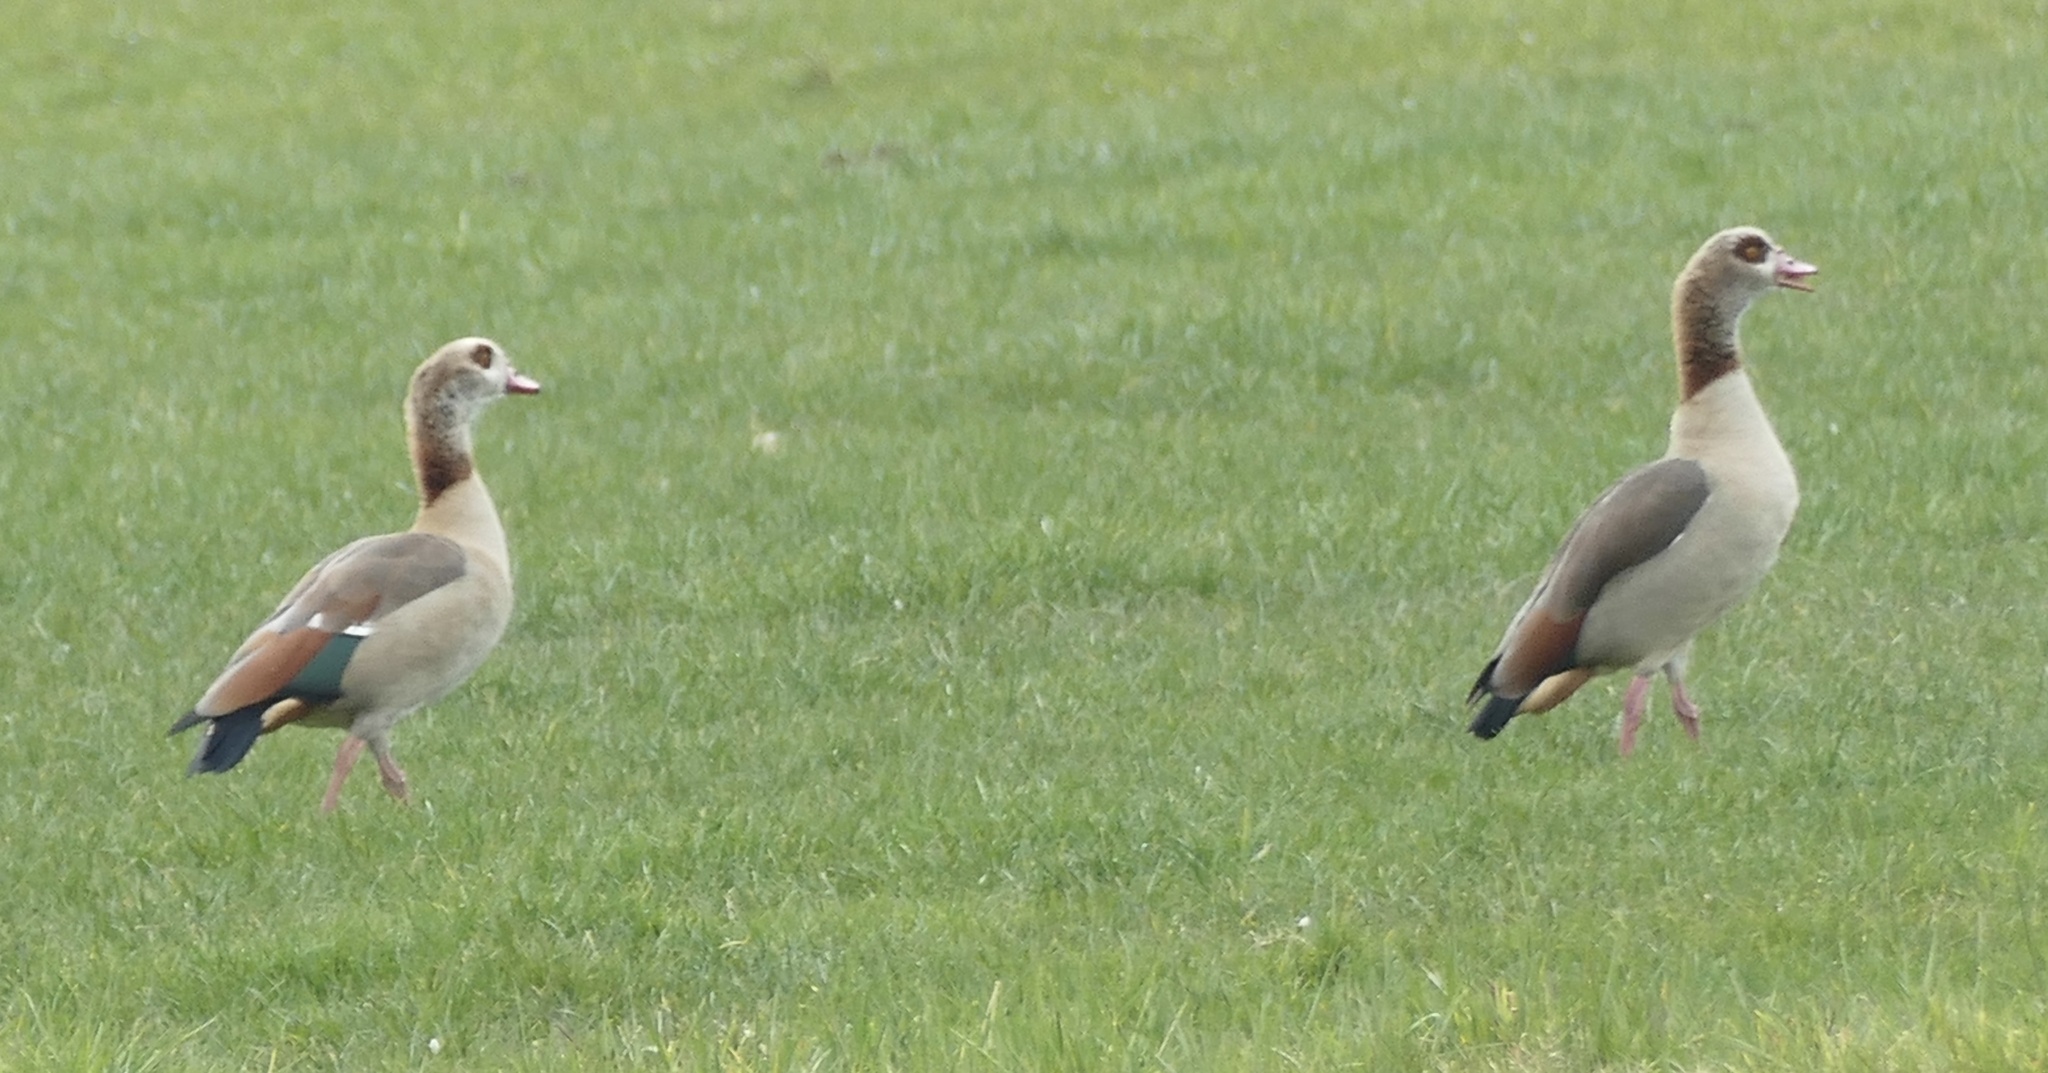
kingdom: Animalia
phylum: Chordata
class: Aves
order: Anseriformes
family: Anatidae
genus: Alopochen
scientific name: Alopochen aegyptiaca
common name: Egyptian goose
